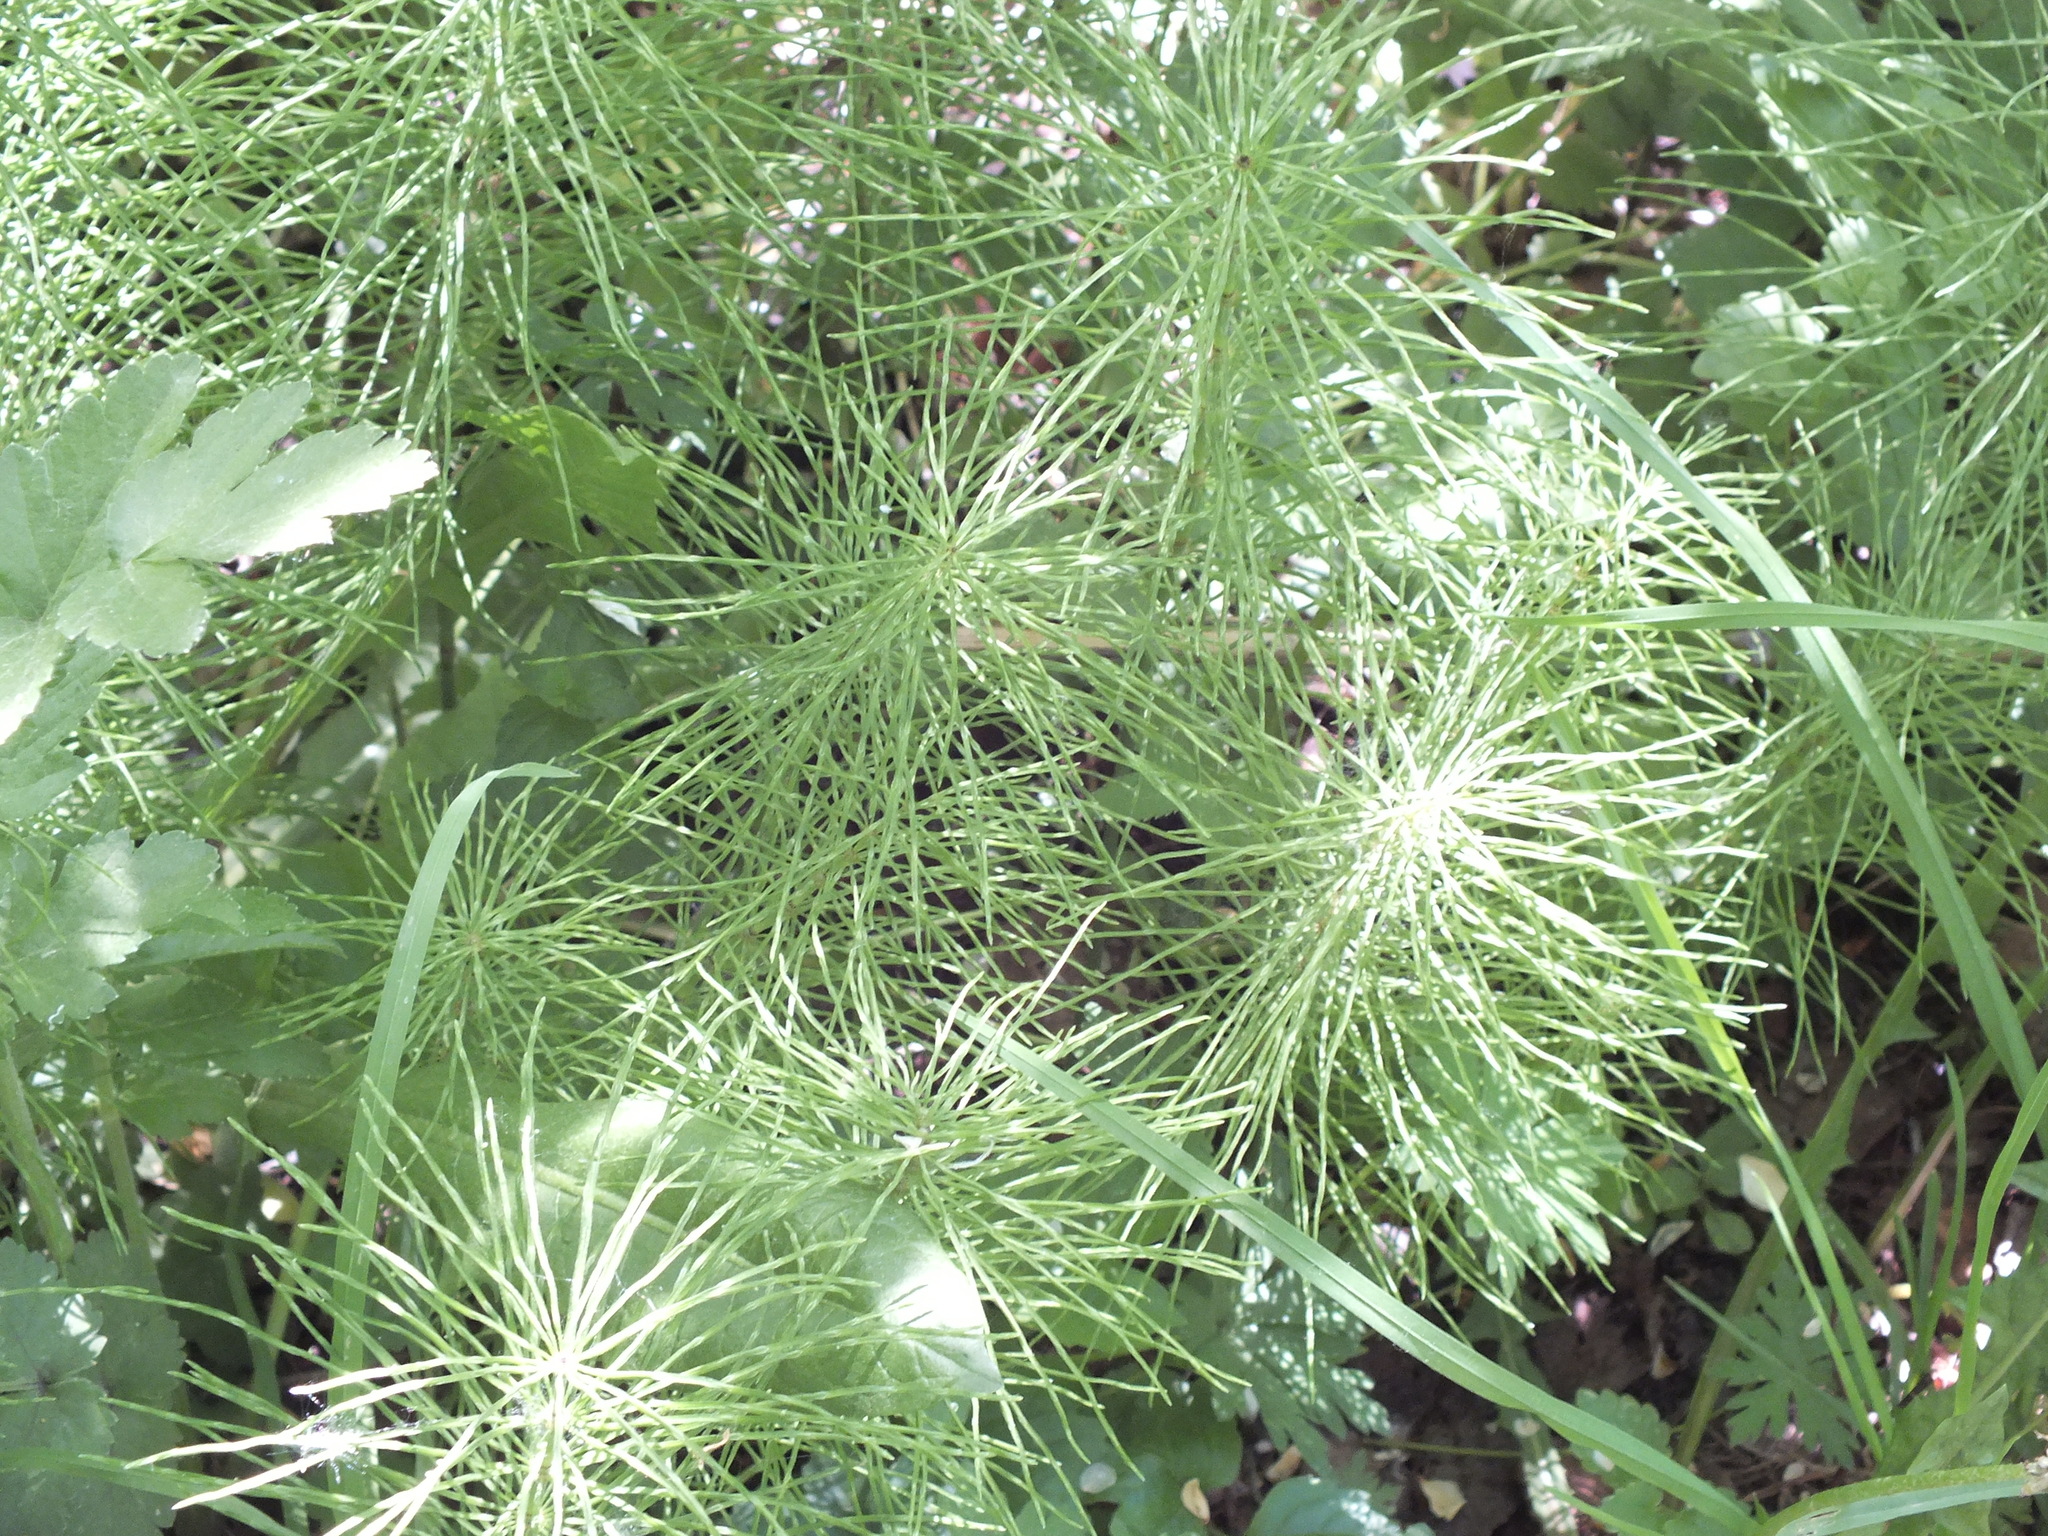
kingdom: Plantae
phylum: Tracheophyta
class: Polypodiopsida
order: Equisetales
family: Equisetaceae
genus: Equisetum
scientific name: Equisetum pratense
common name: Meadow horsetail
